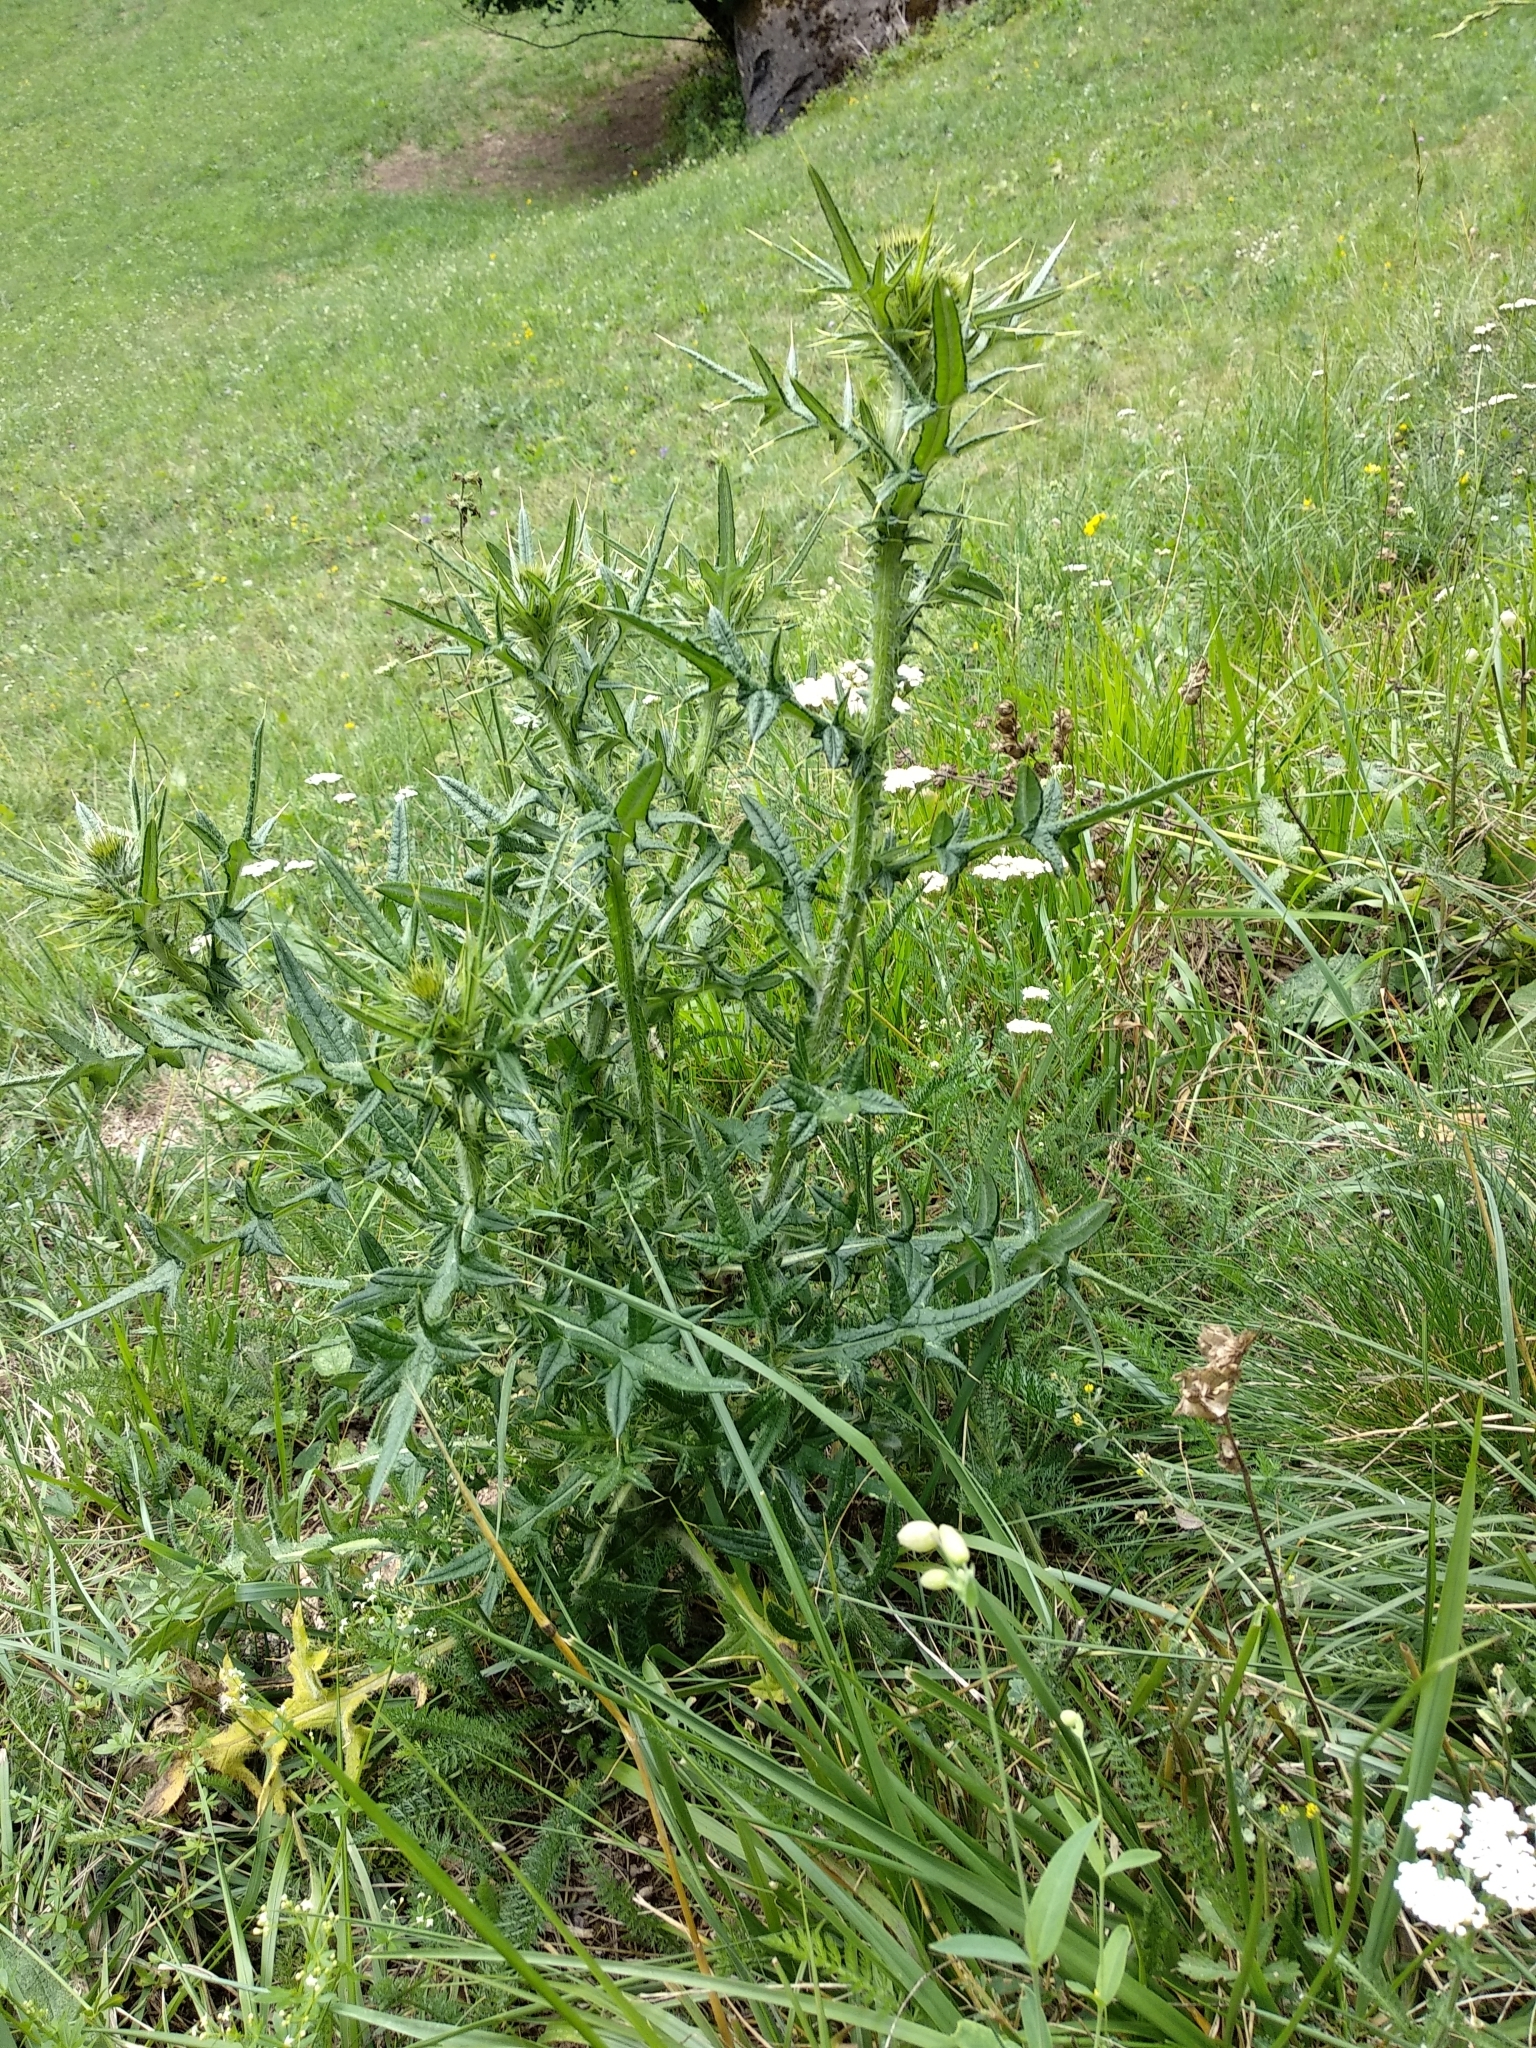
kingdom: Plantae
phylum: Tracheophyta
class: Magnoliopsida
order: Asterales
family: Asteraceae
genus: Cirsium
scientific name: Cirsium vulgare
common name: Bull thistle
